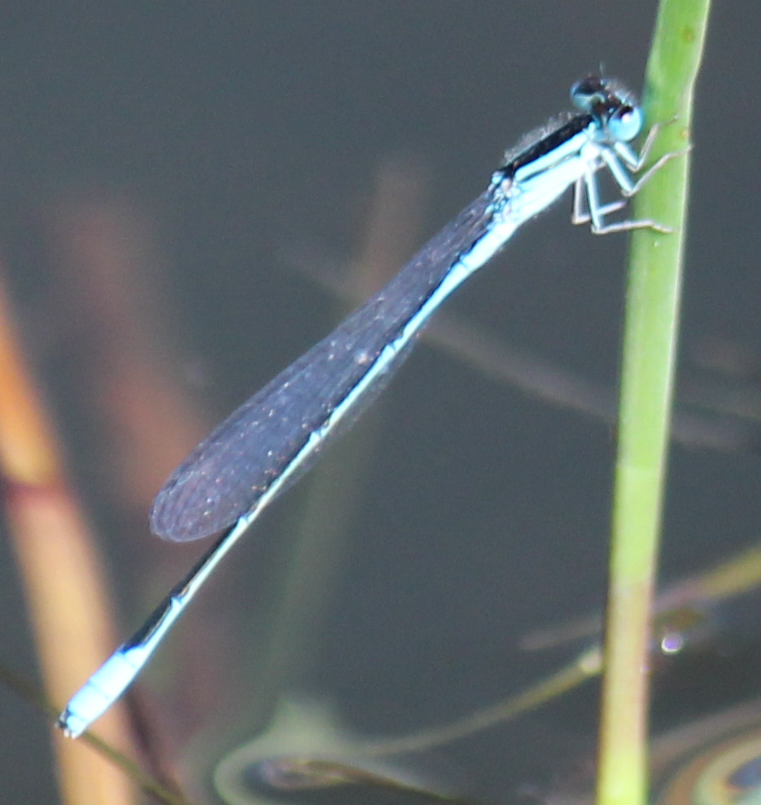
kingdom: Animalia
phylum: Arthropoda
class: Insecta
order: Odonata
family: Coenagrionidae
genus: Africallagma
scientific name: Africallagma glaucum
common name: Swamp bluet
